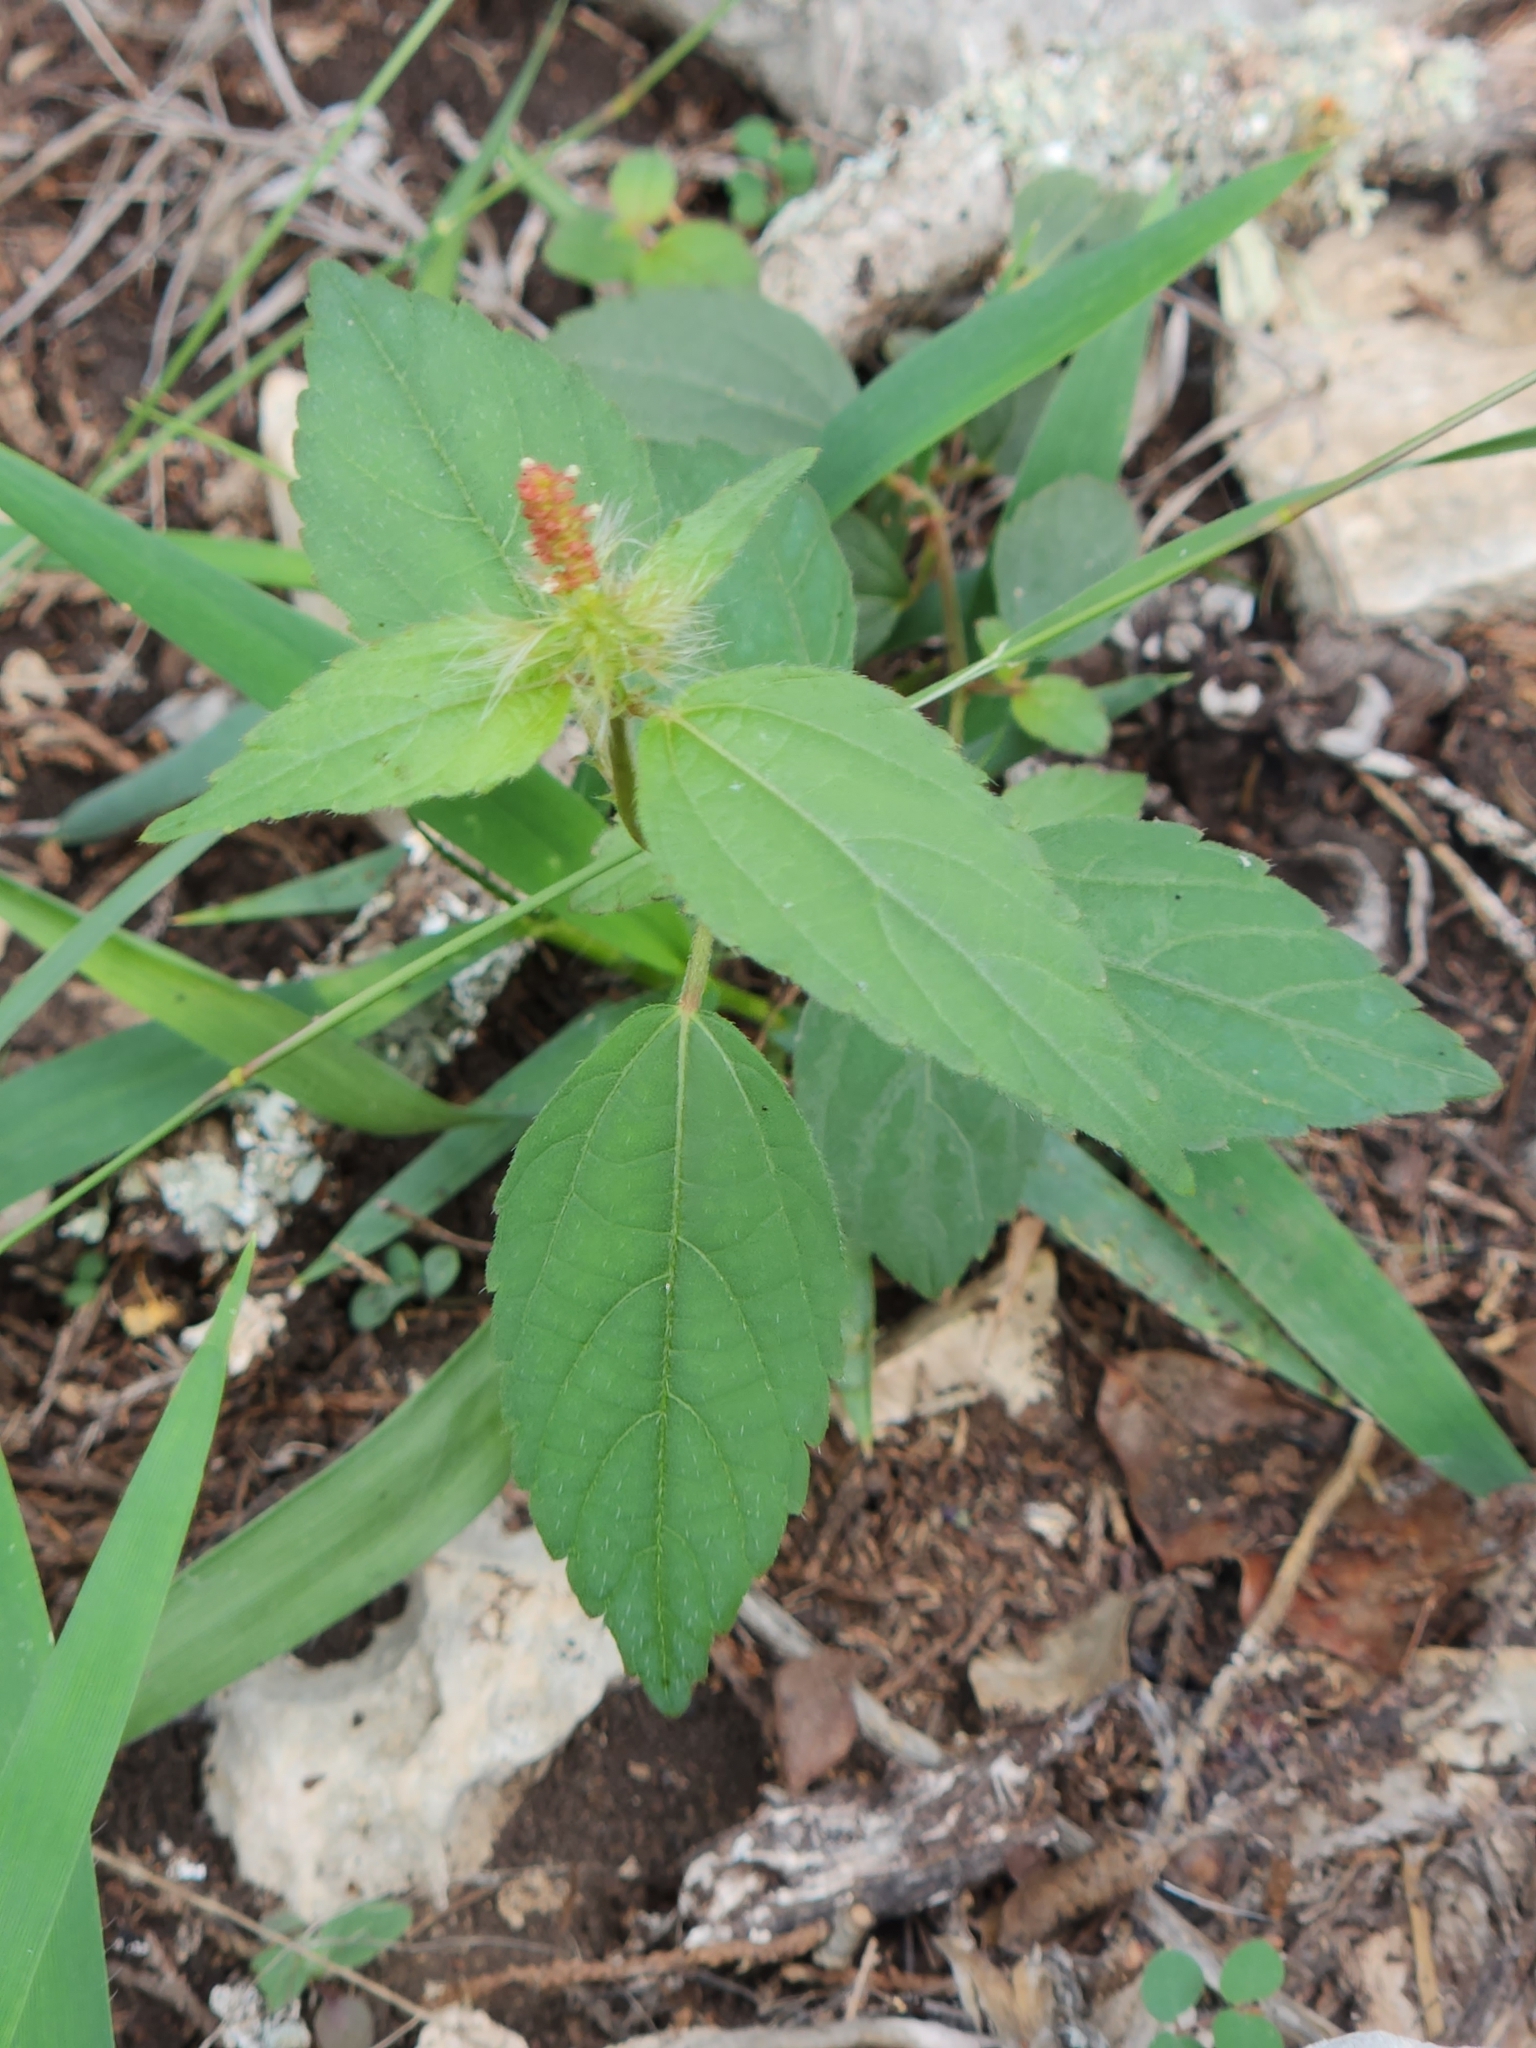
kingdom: Plantae
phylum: Tracheophyta
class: Magnoliopsida
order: Malpighiales
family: Euphorbiaceae
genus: Acalypha
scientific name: Acalypha phleoides
